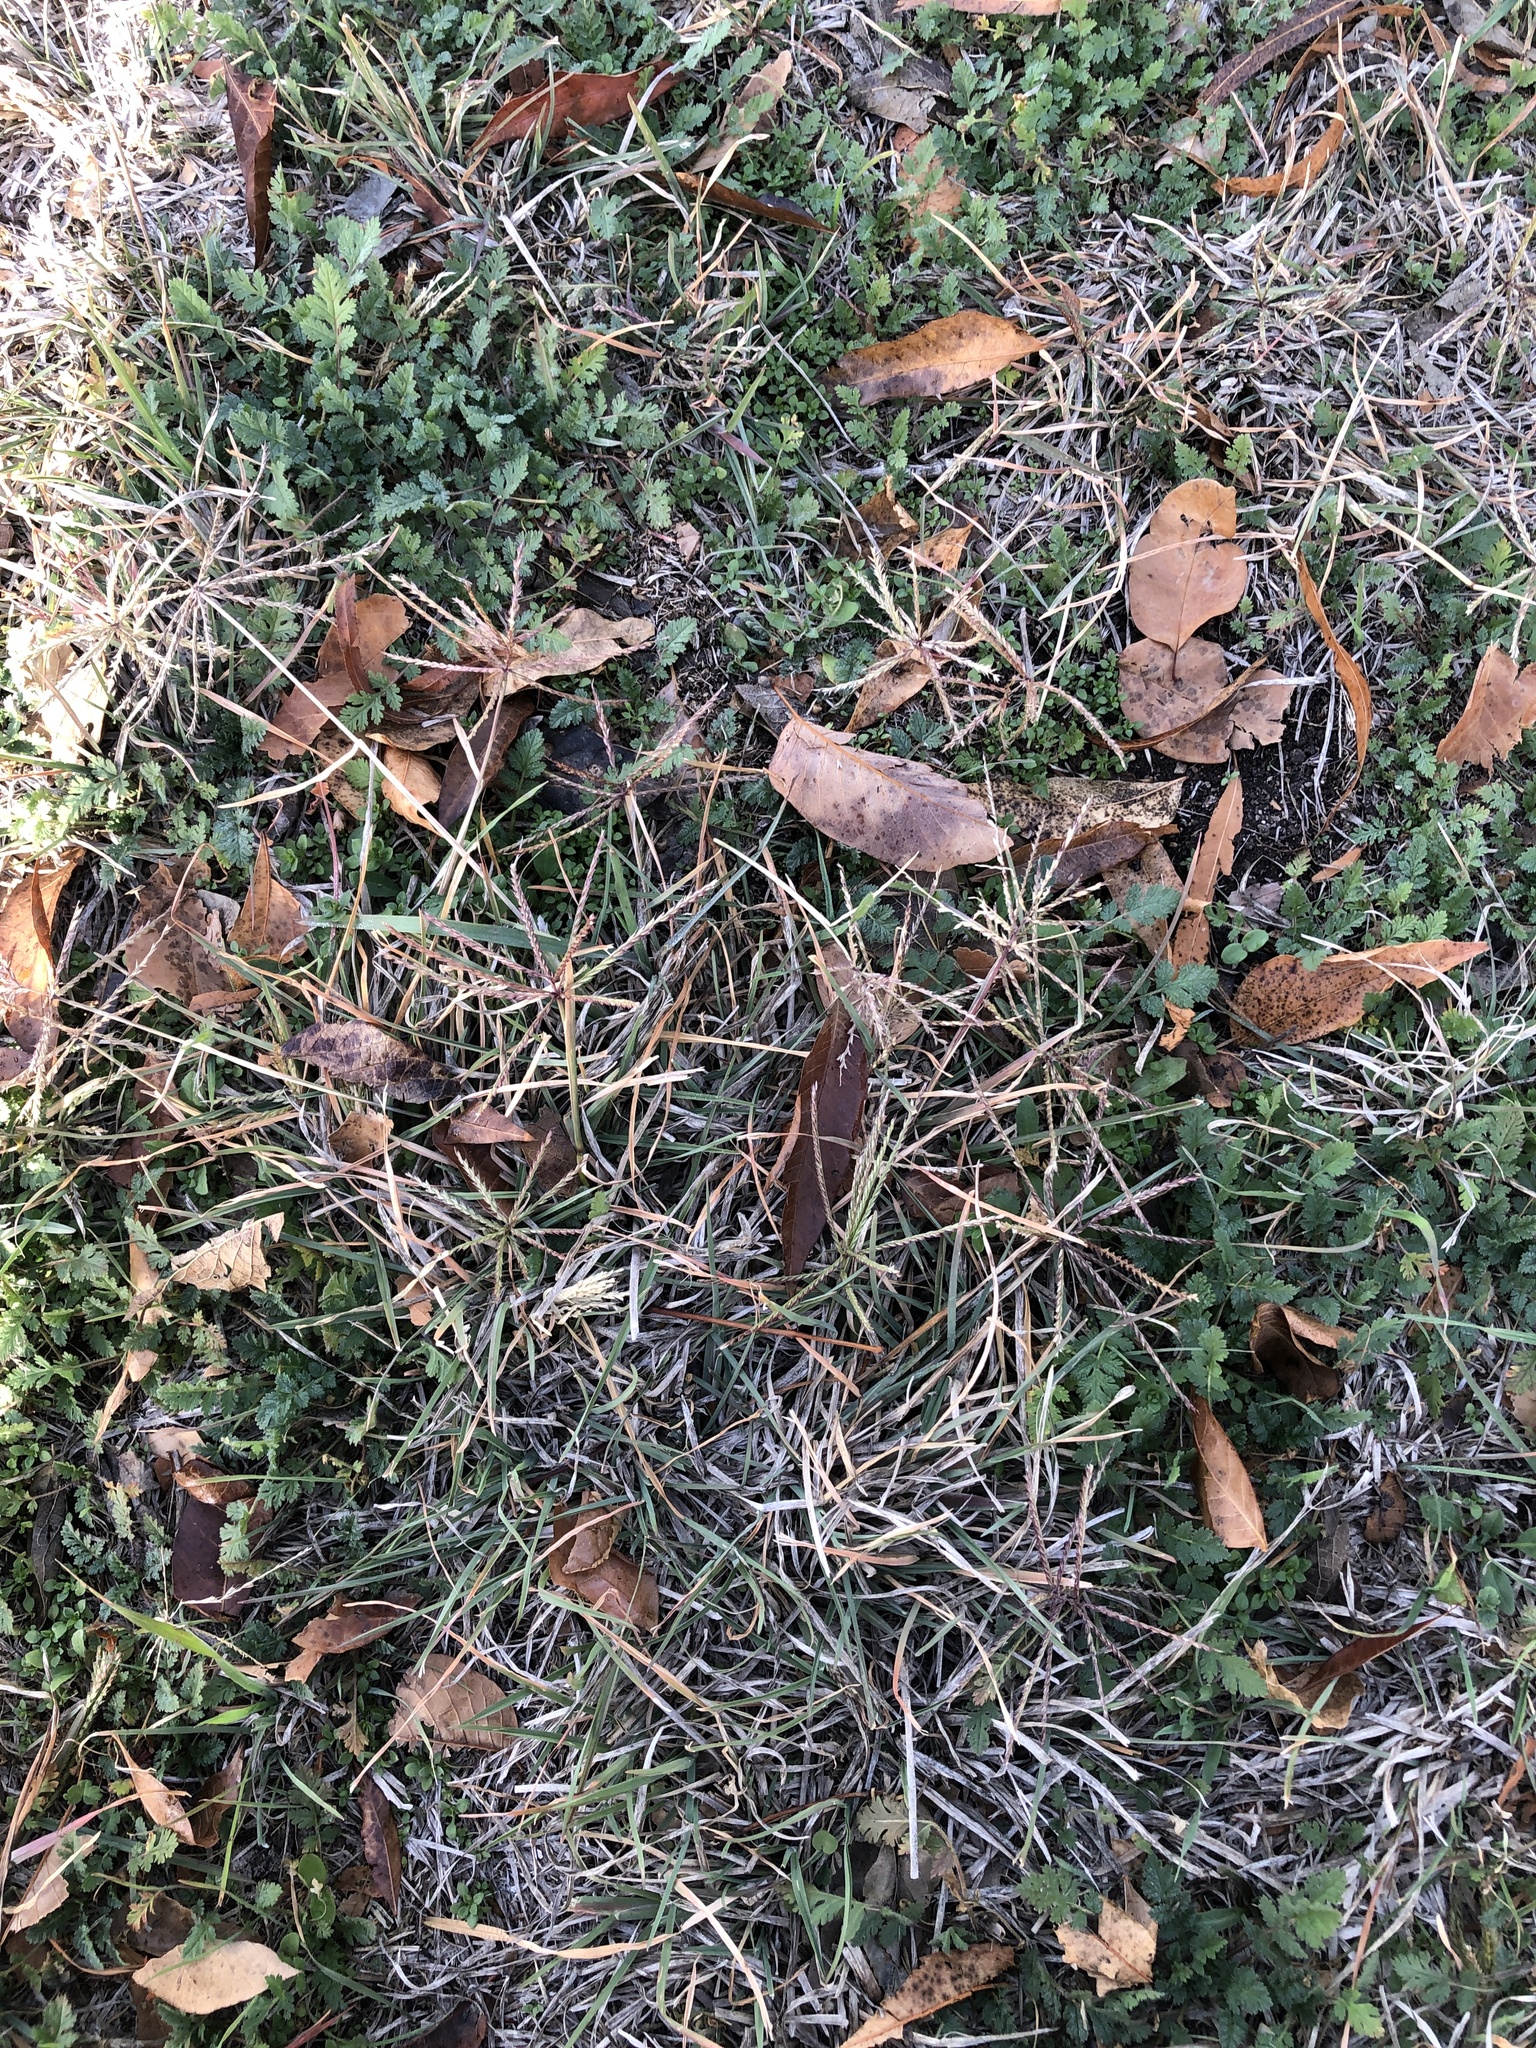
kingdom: Plantae
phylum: Tracheophyta
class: Liliopsida
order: Poales
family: Poaceae
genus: Chloris
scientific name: Chloris verticillata
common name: Tumble windmill grass
